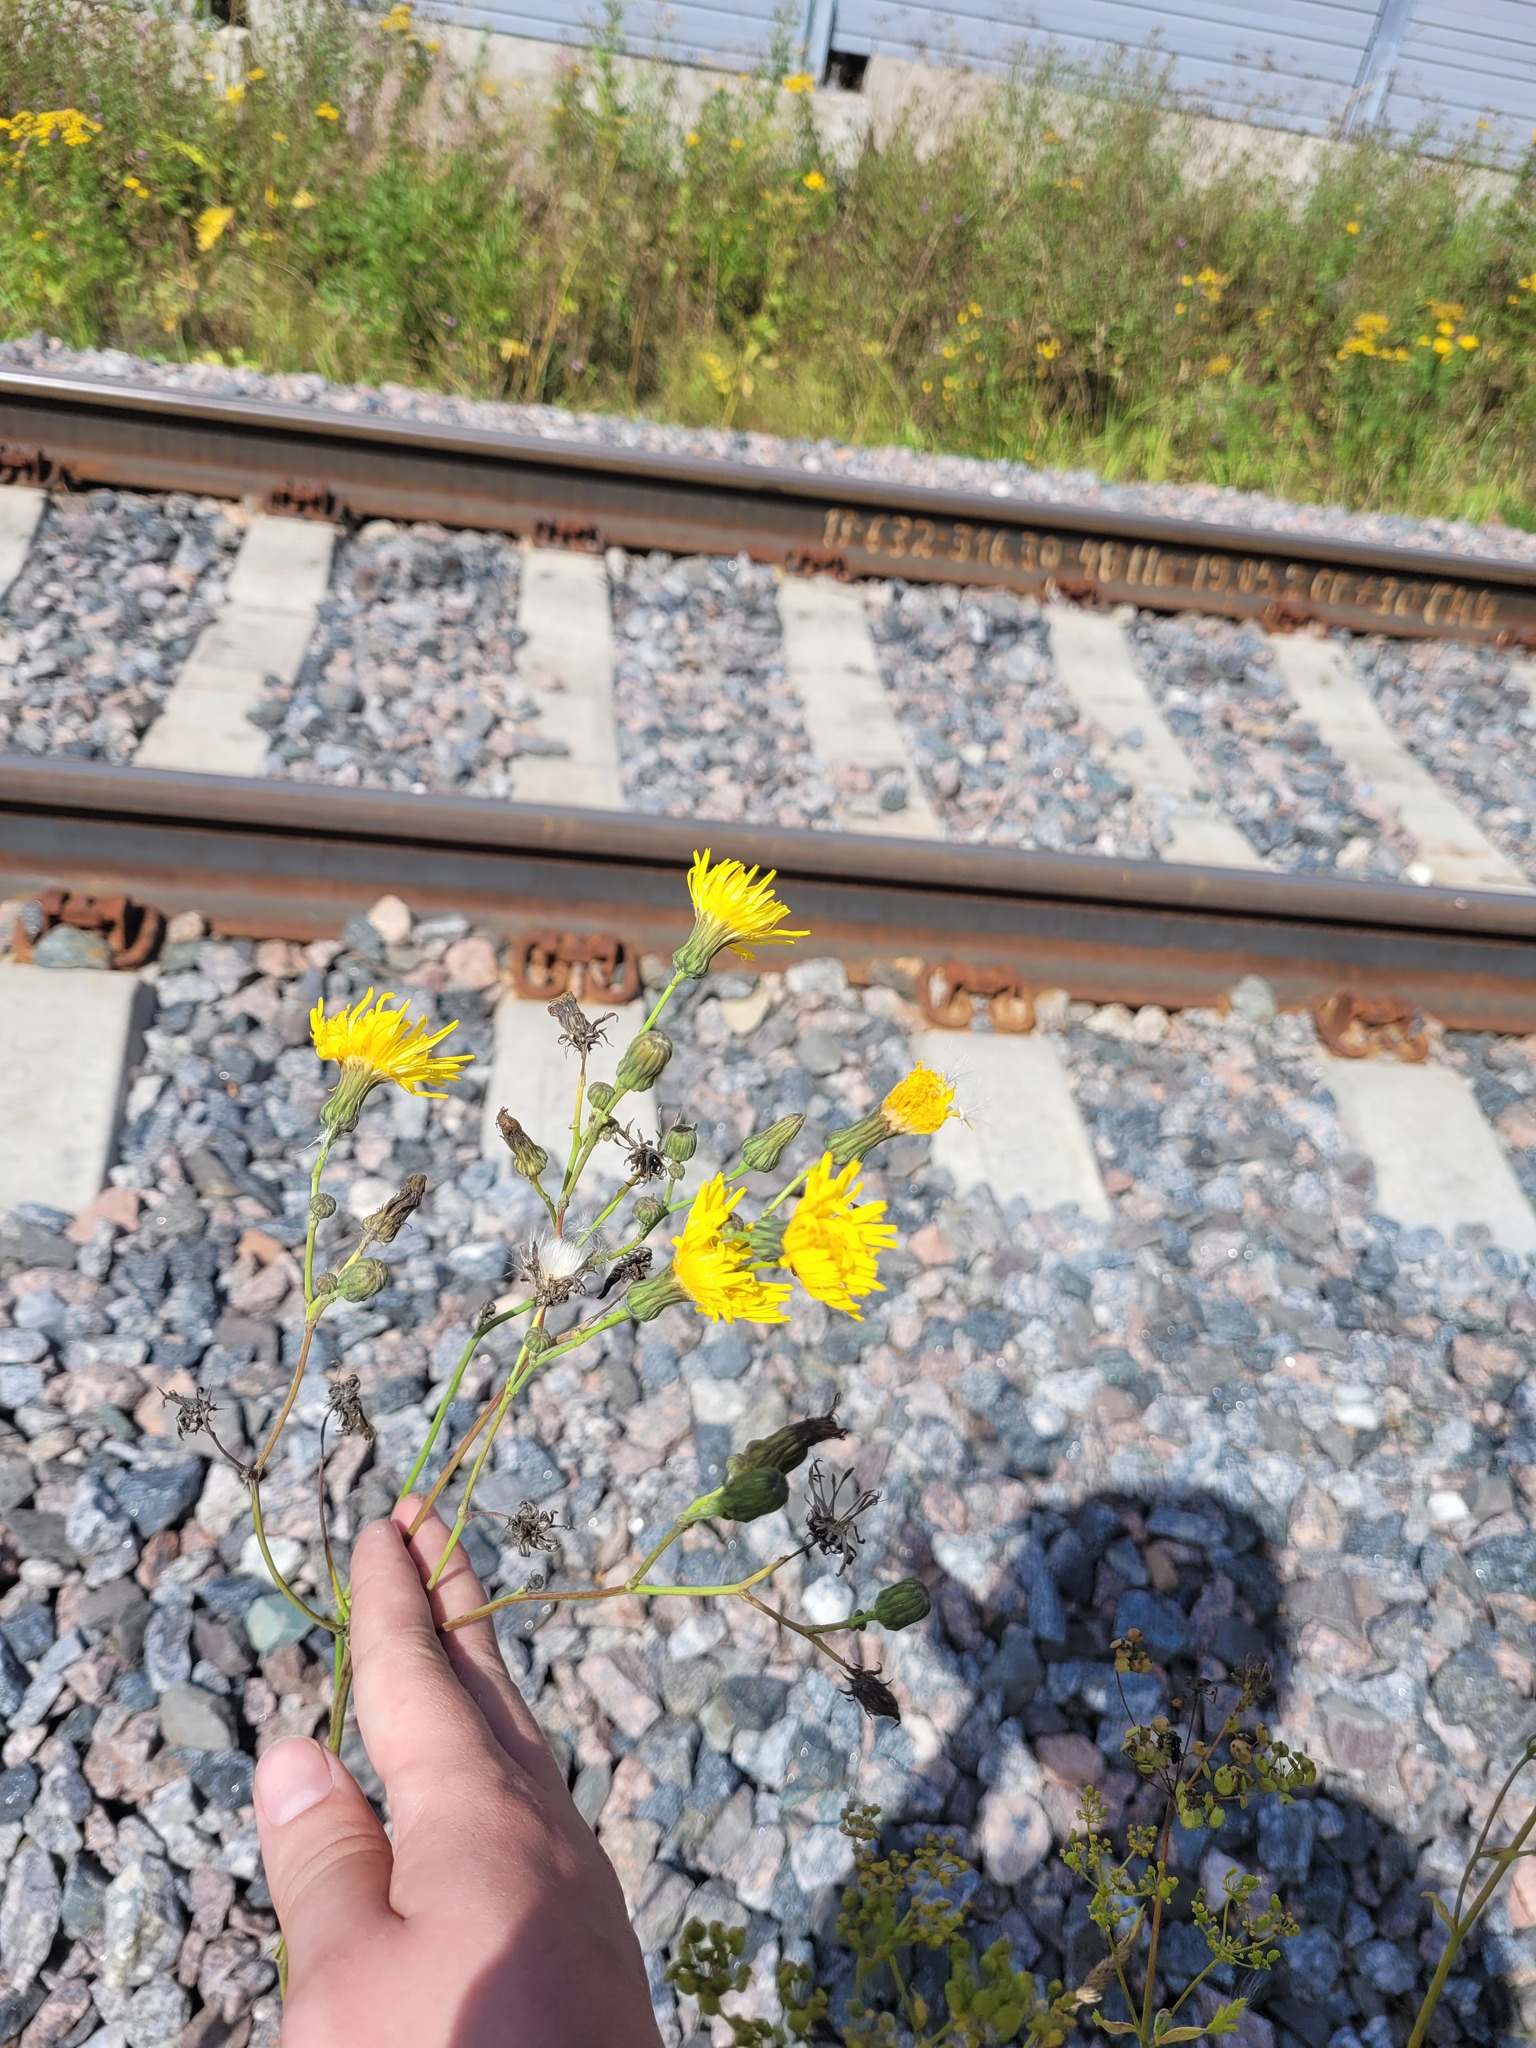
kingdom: Plantae
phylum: Tracheophyta
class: Magnoliopsida
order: Asterales
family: Asteraceae
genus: Sonchus
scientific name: Sonchus arvensis
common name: Perennial sow-thistle
